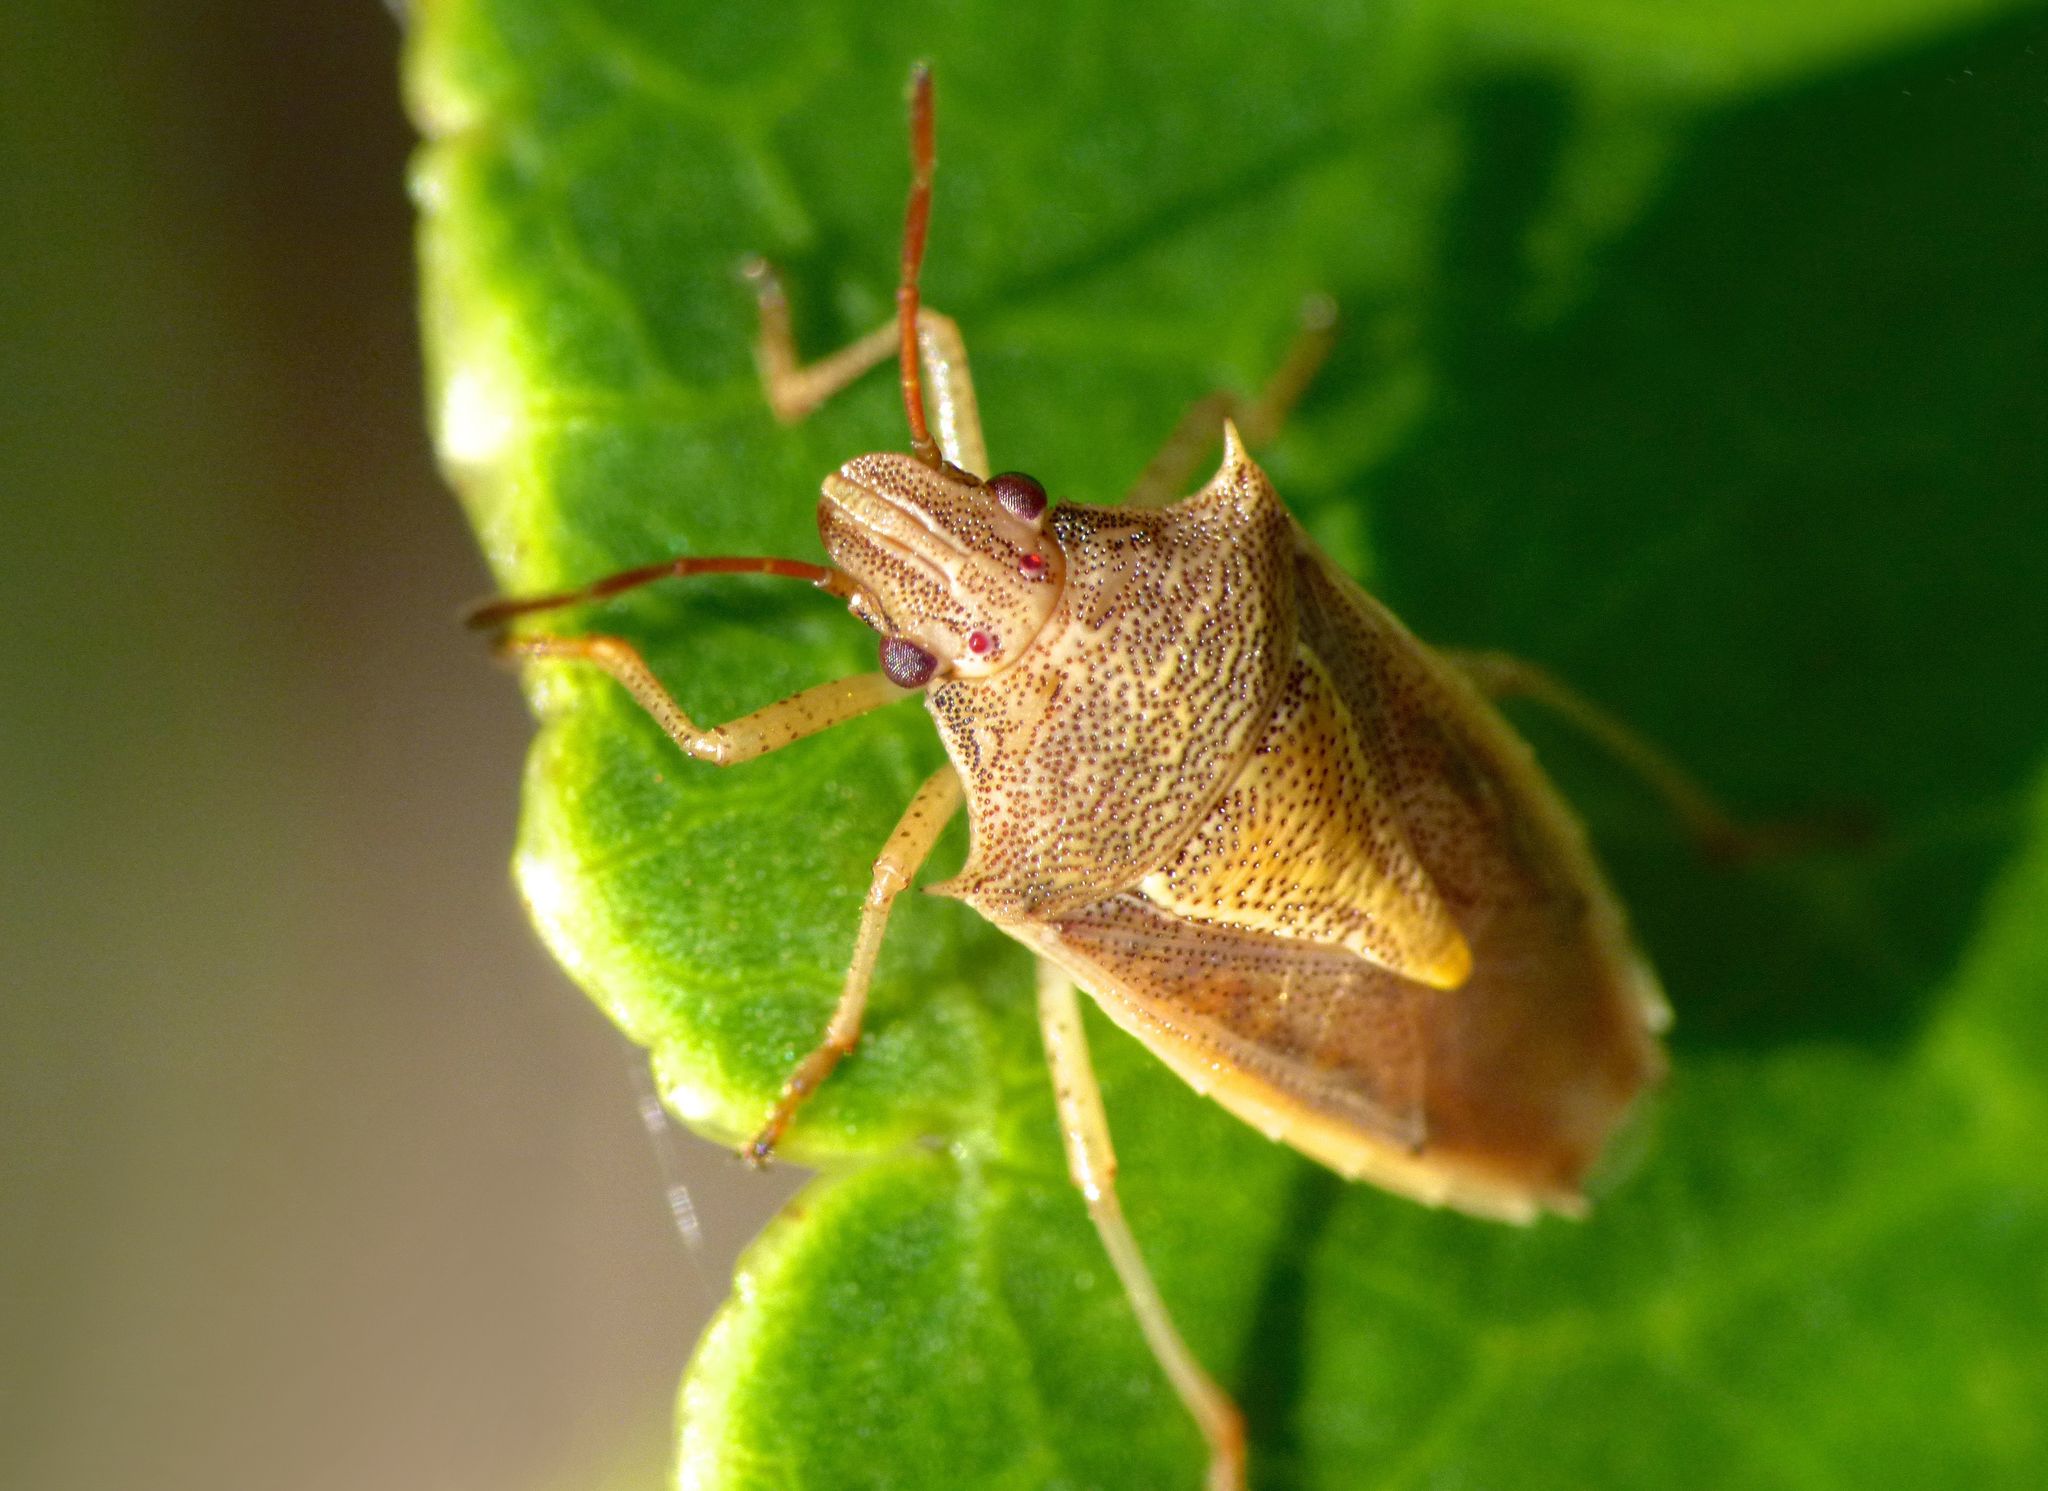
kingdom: Animalia
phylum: Arthropoda
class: Insecta
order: Hemiptera
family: Pentatomidae
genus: Oebalus
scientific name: Oebalus pugnax
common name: Rice stink bug
